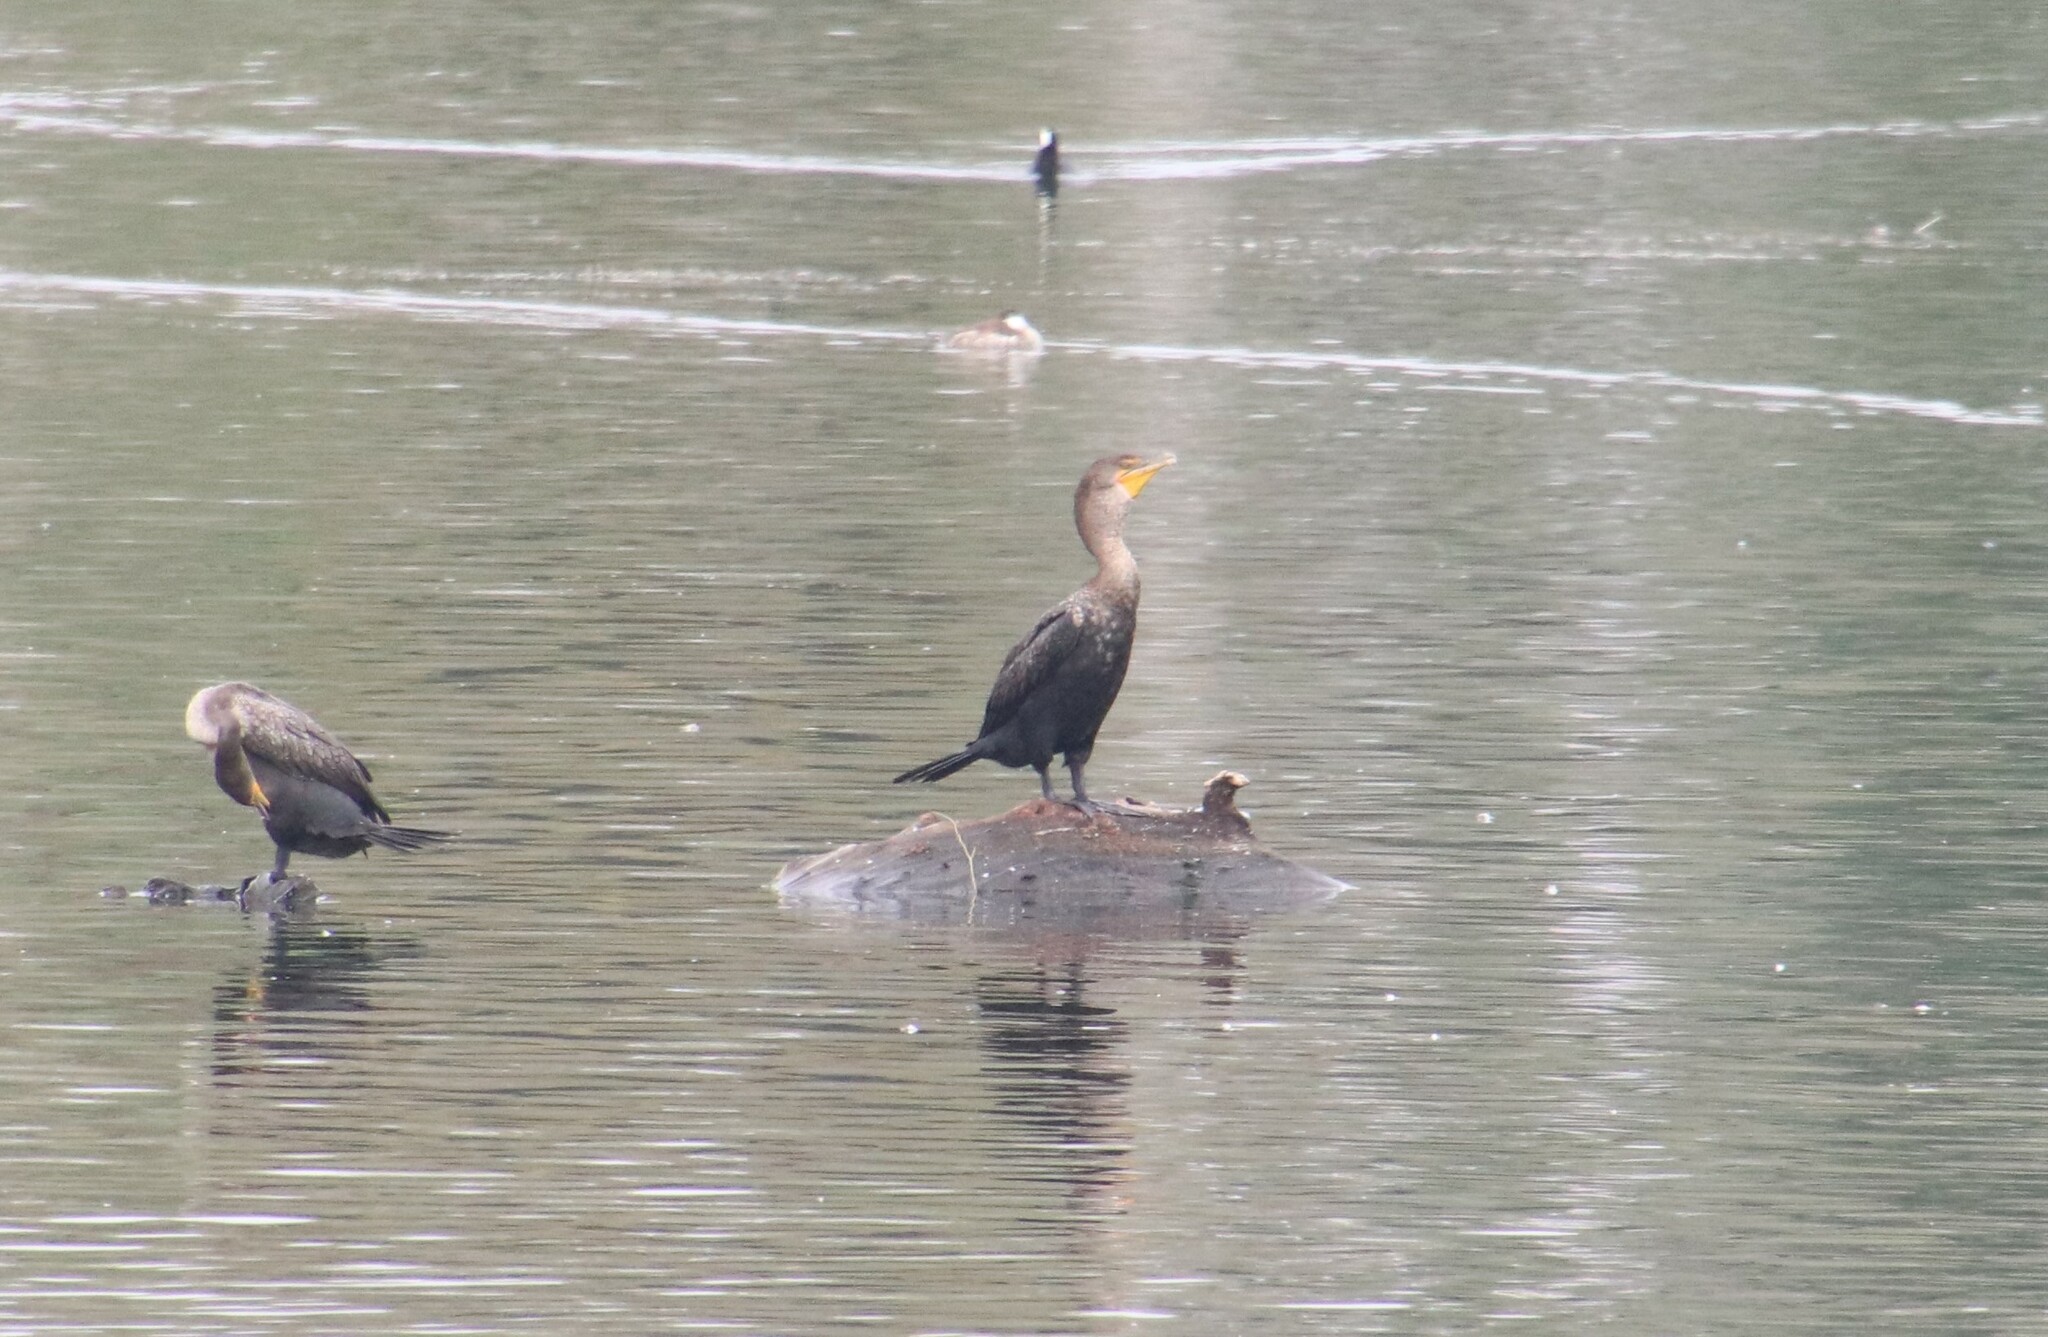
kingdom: Animalia
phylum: Chordata
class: Aves
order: Suliformes
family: Phalacrocoracidae
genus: Phalacrocorax
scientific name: Phalacrocorax auritus
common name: Double-crested cormorant
